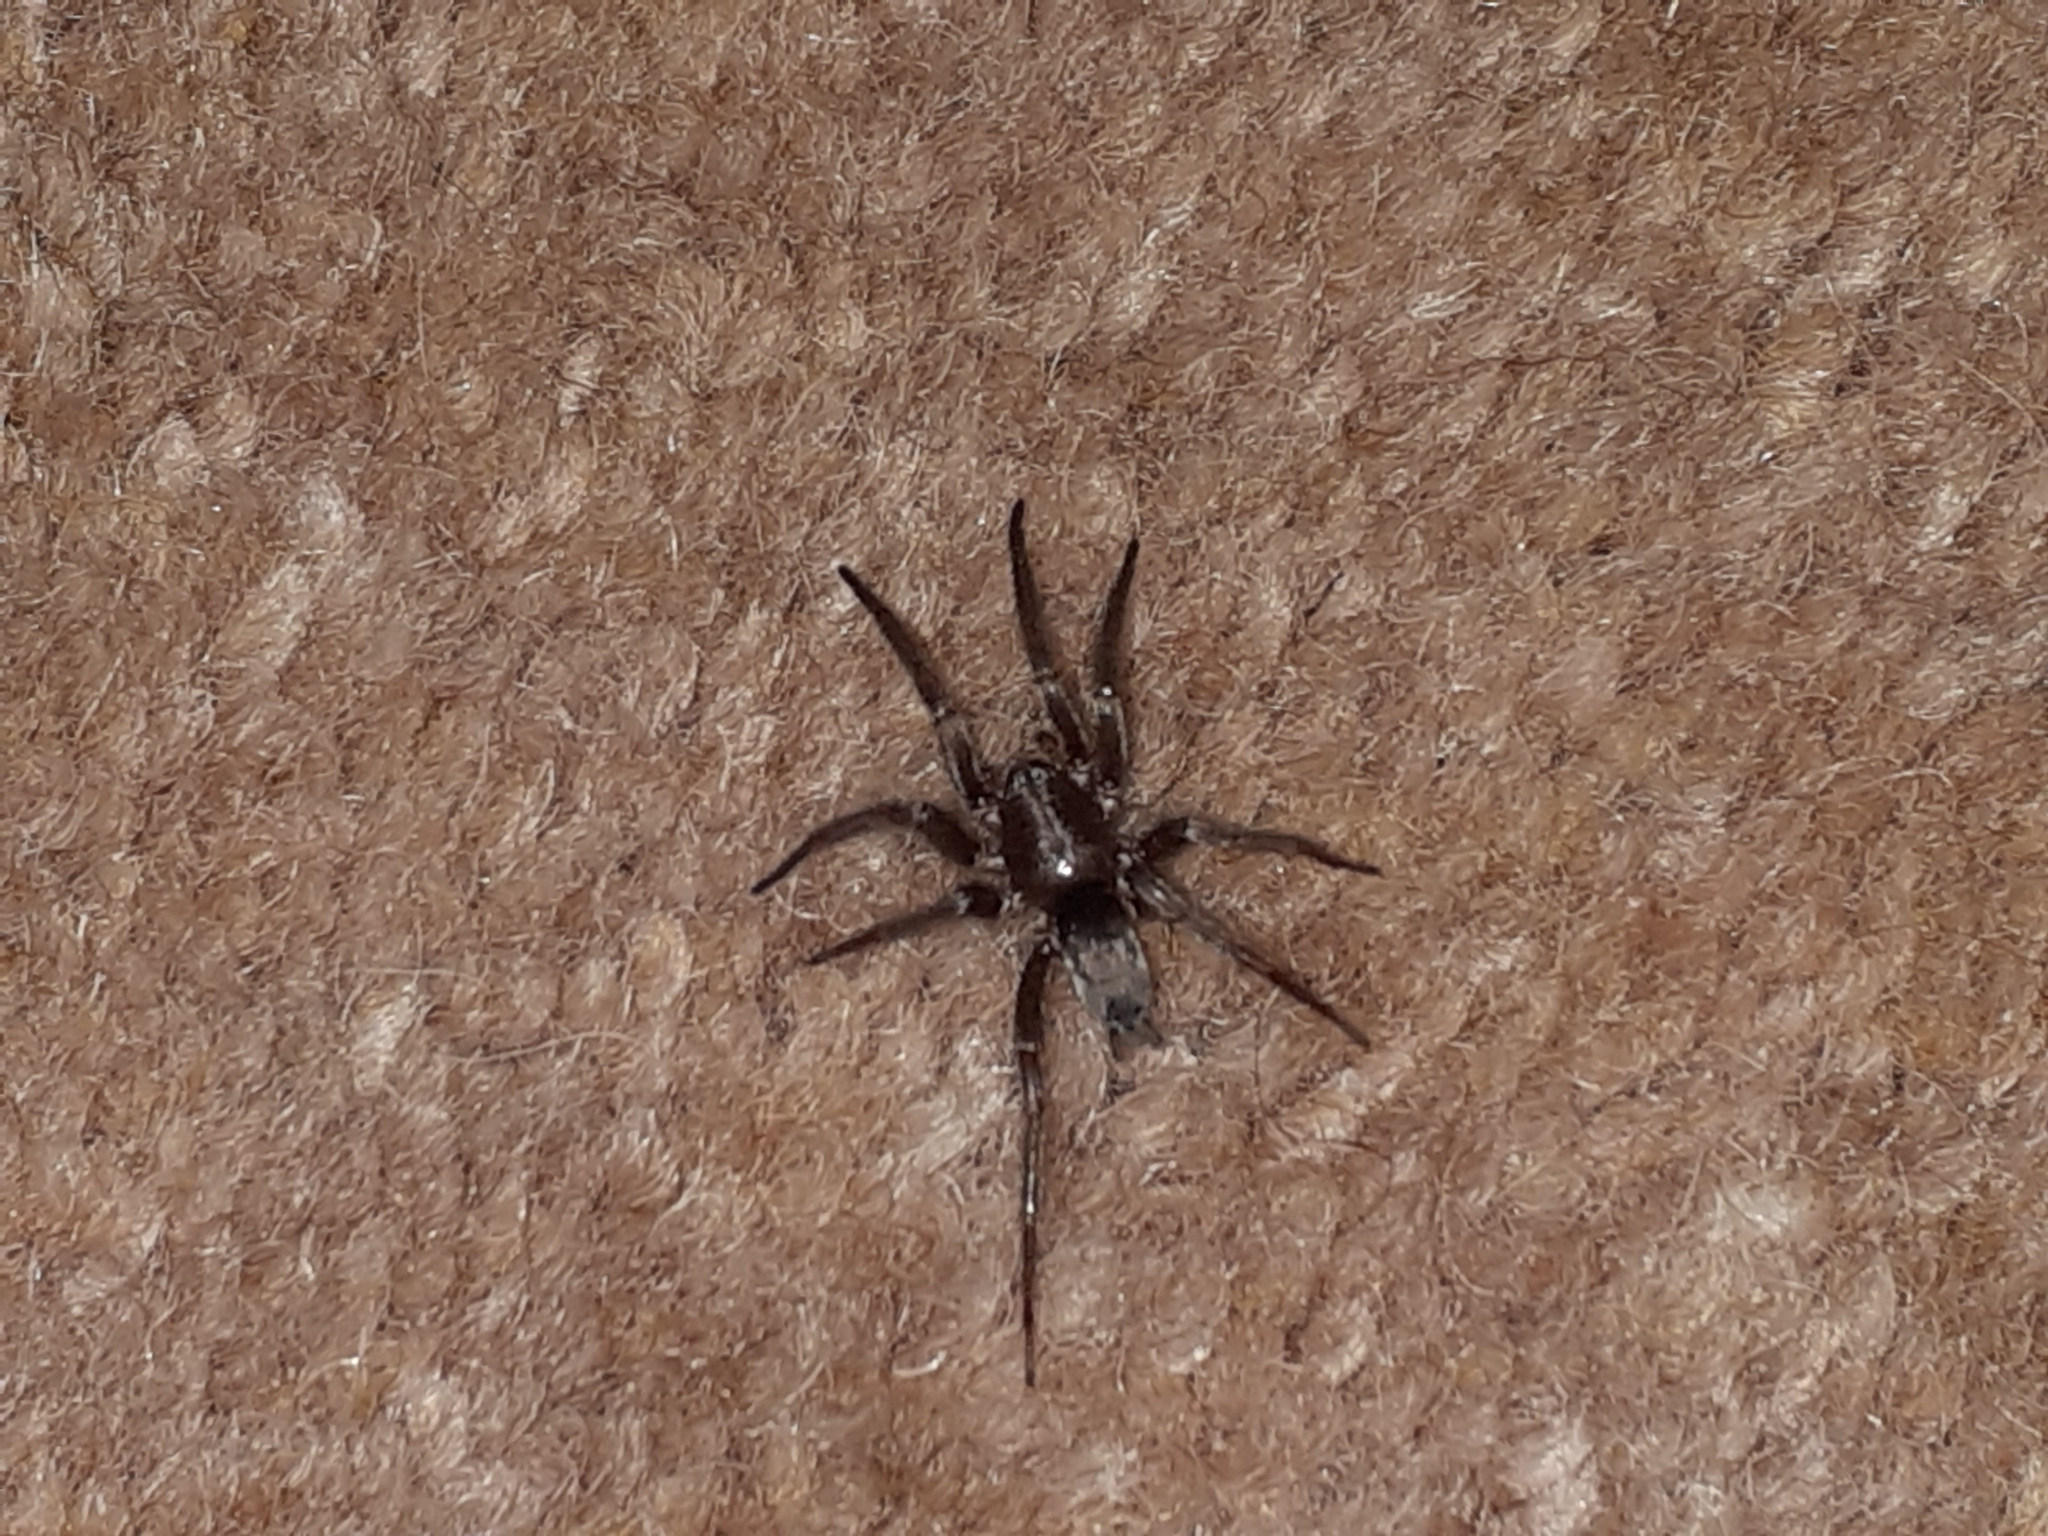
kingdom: Animalia
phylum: Arthropoda
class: Arachnida
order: Araneae
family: Gnaphosidae
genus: Scotophaeus
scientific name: Scotophaeus blackwalli
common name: Mouse spider
